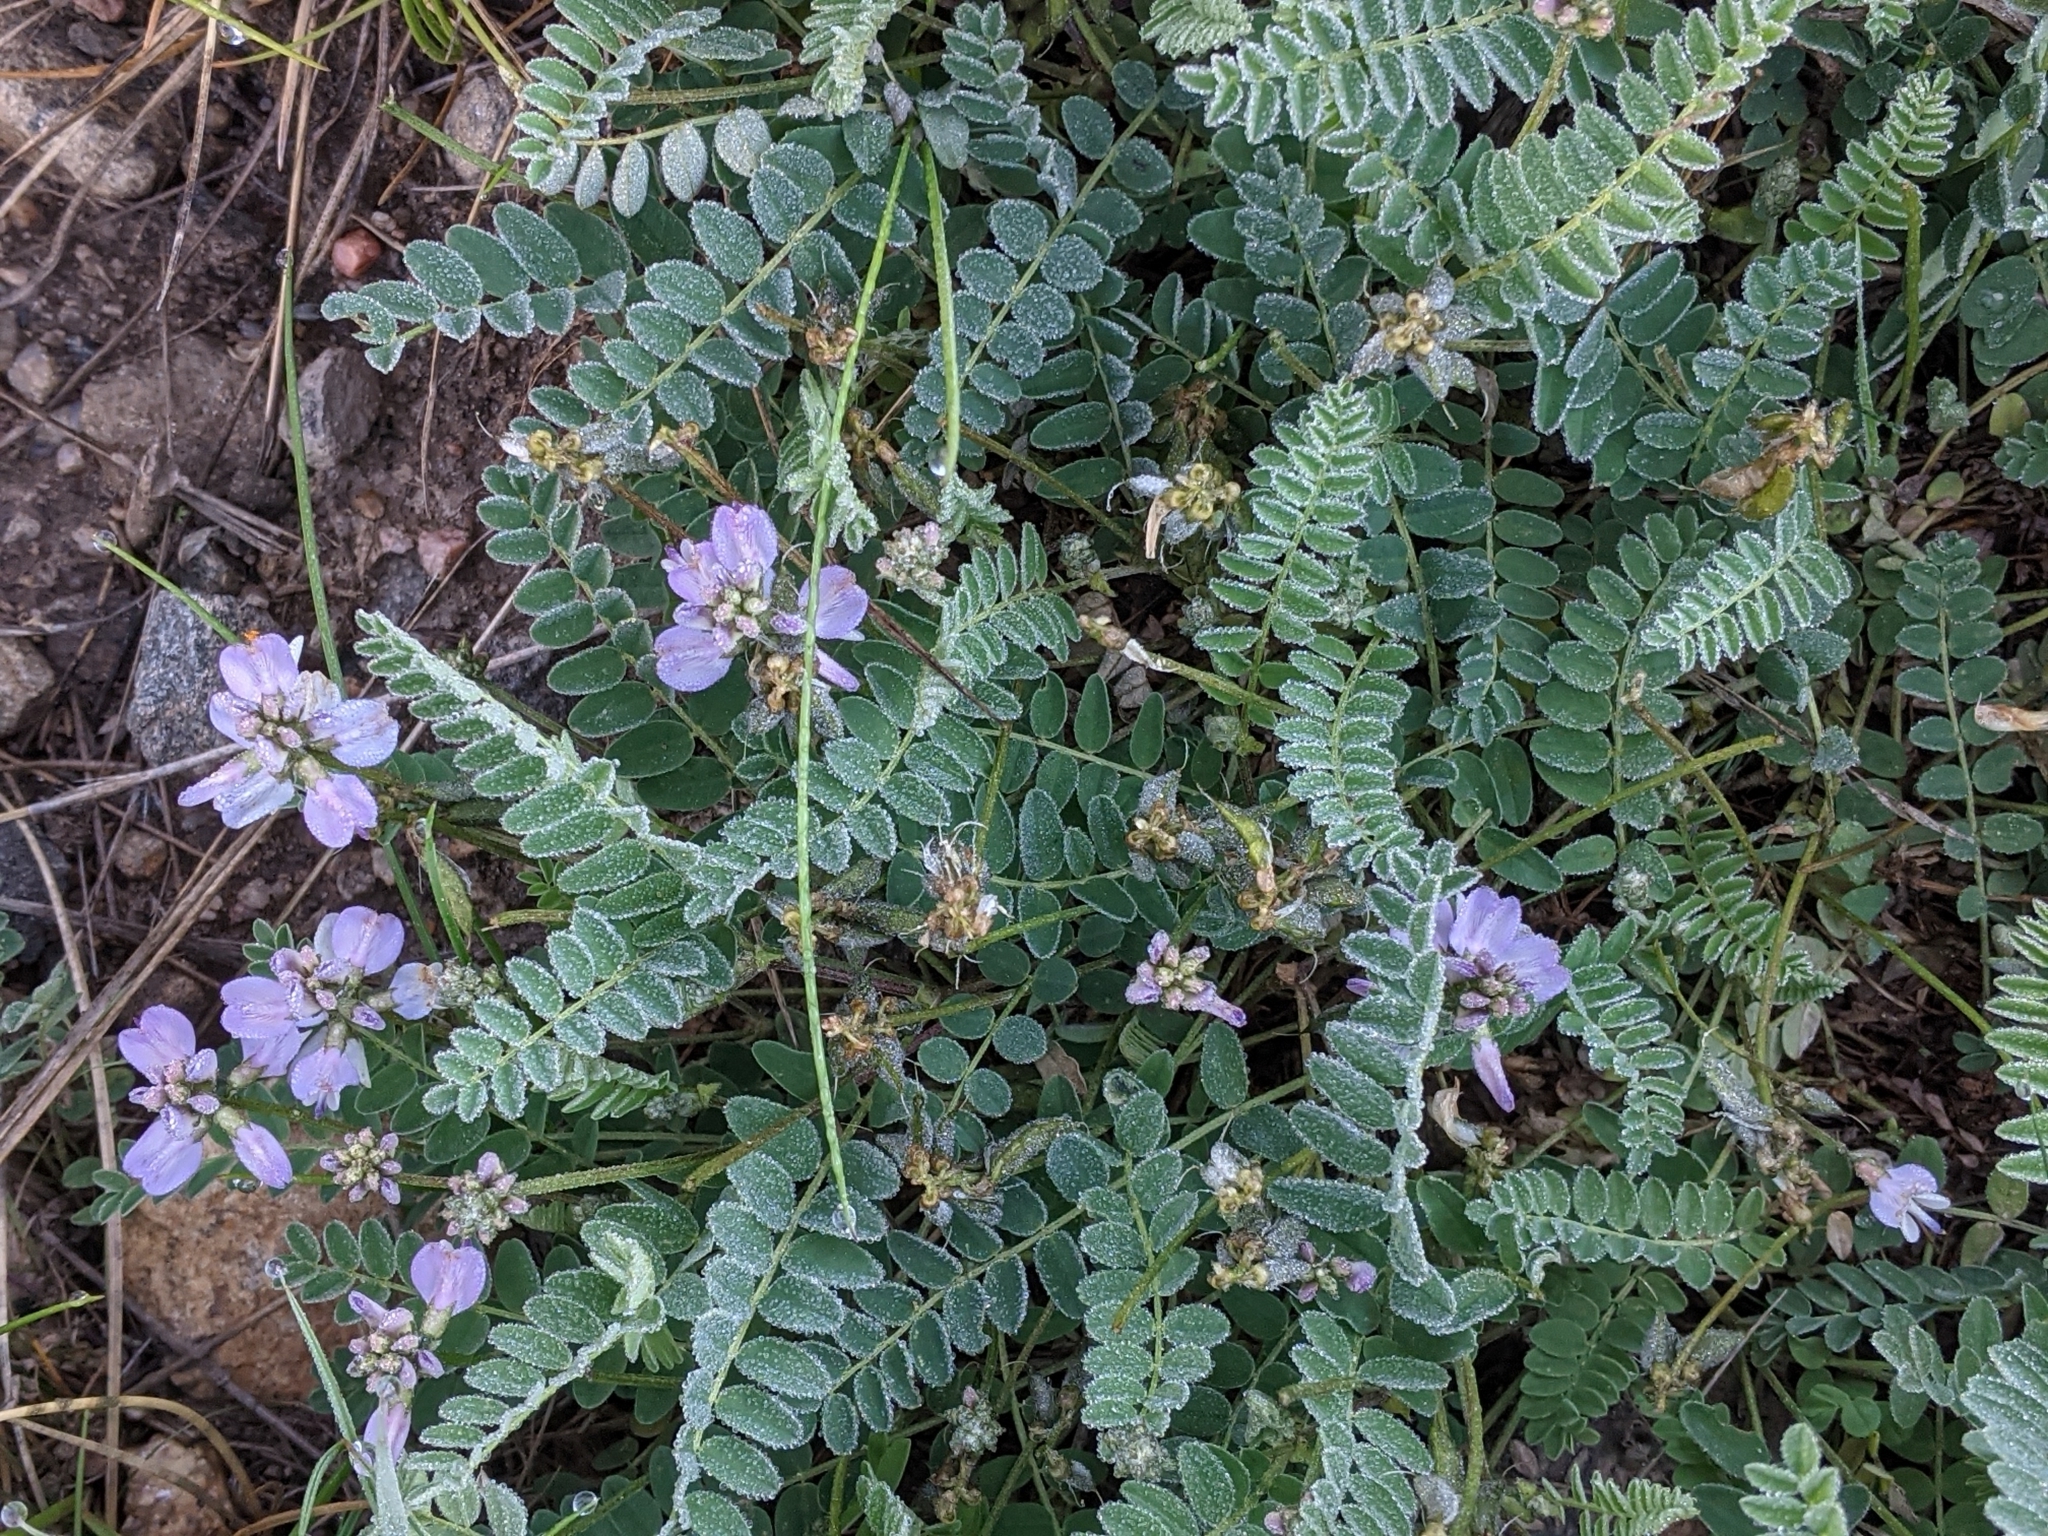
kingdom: Plantae
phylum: Tracheophyta
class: Magnoliopsida
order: Fabales
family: Fabaceae
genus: Astragalus
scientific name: Astragalus alpinus
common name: Alpine milk-vetch
